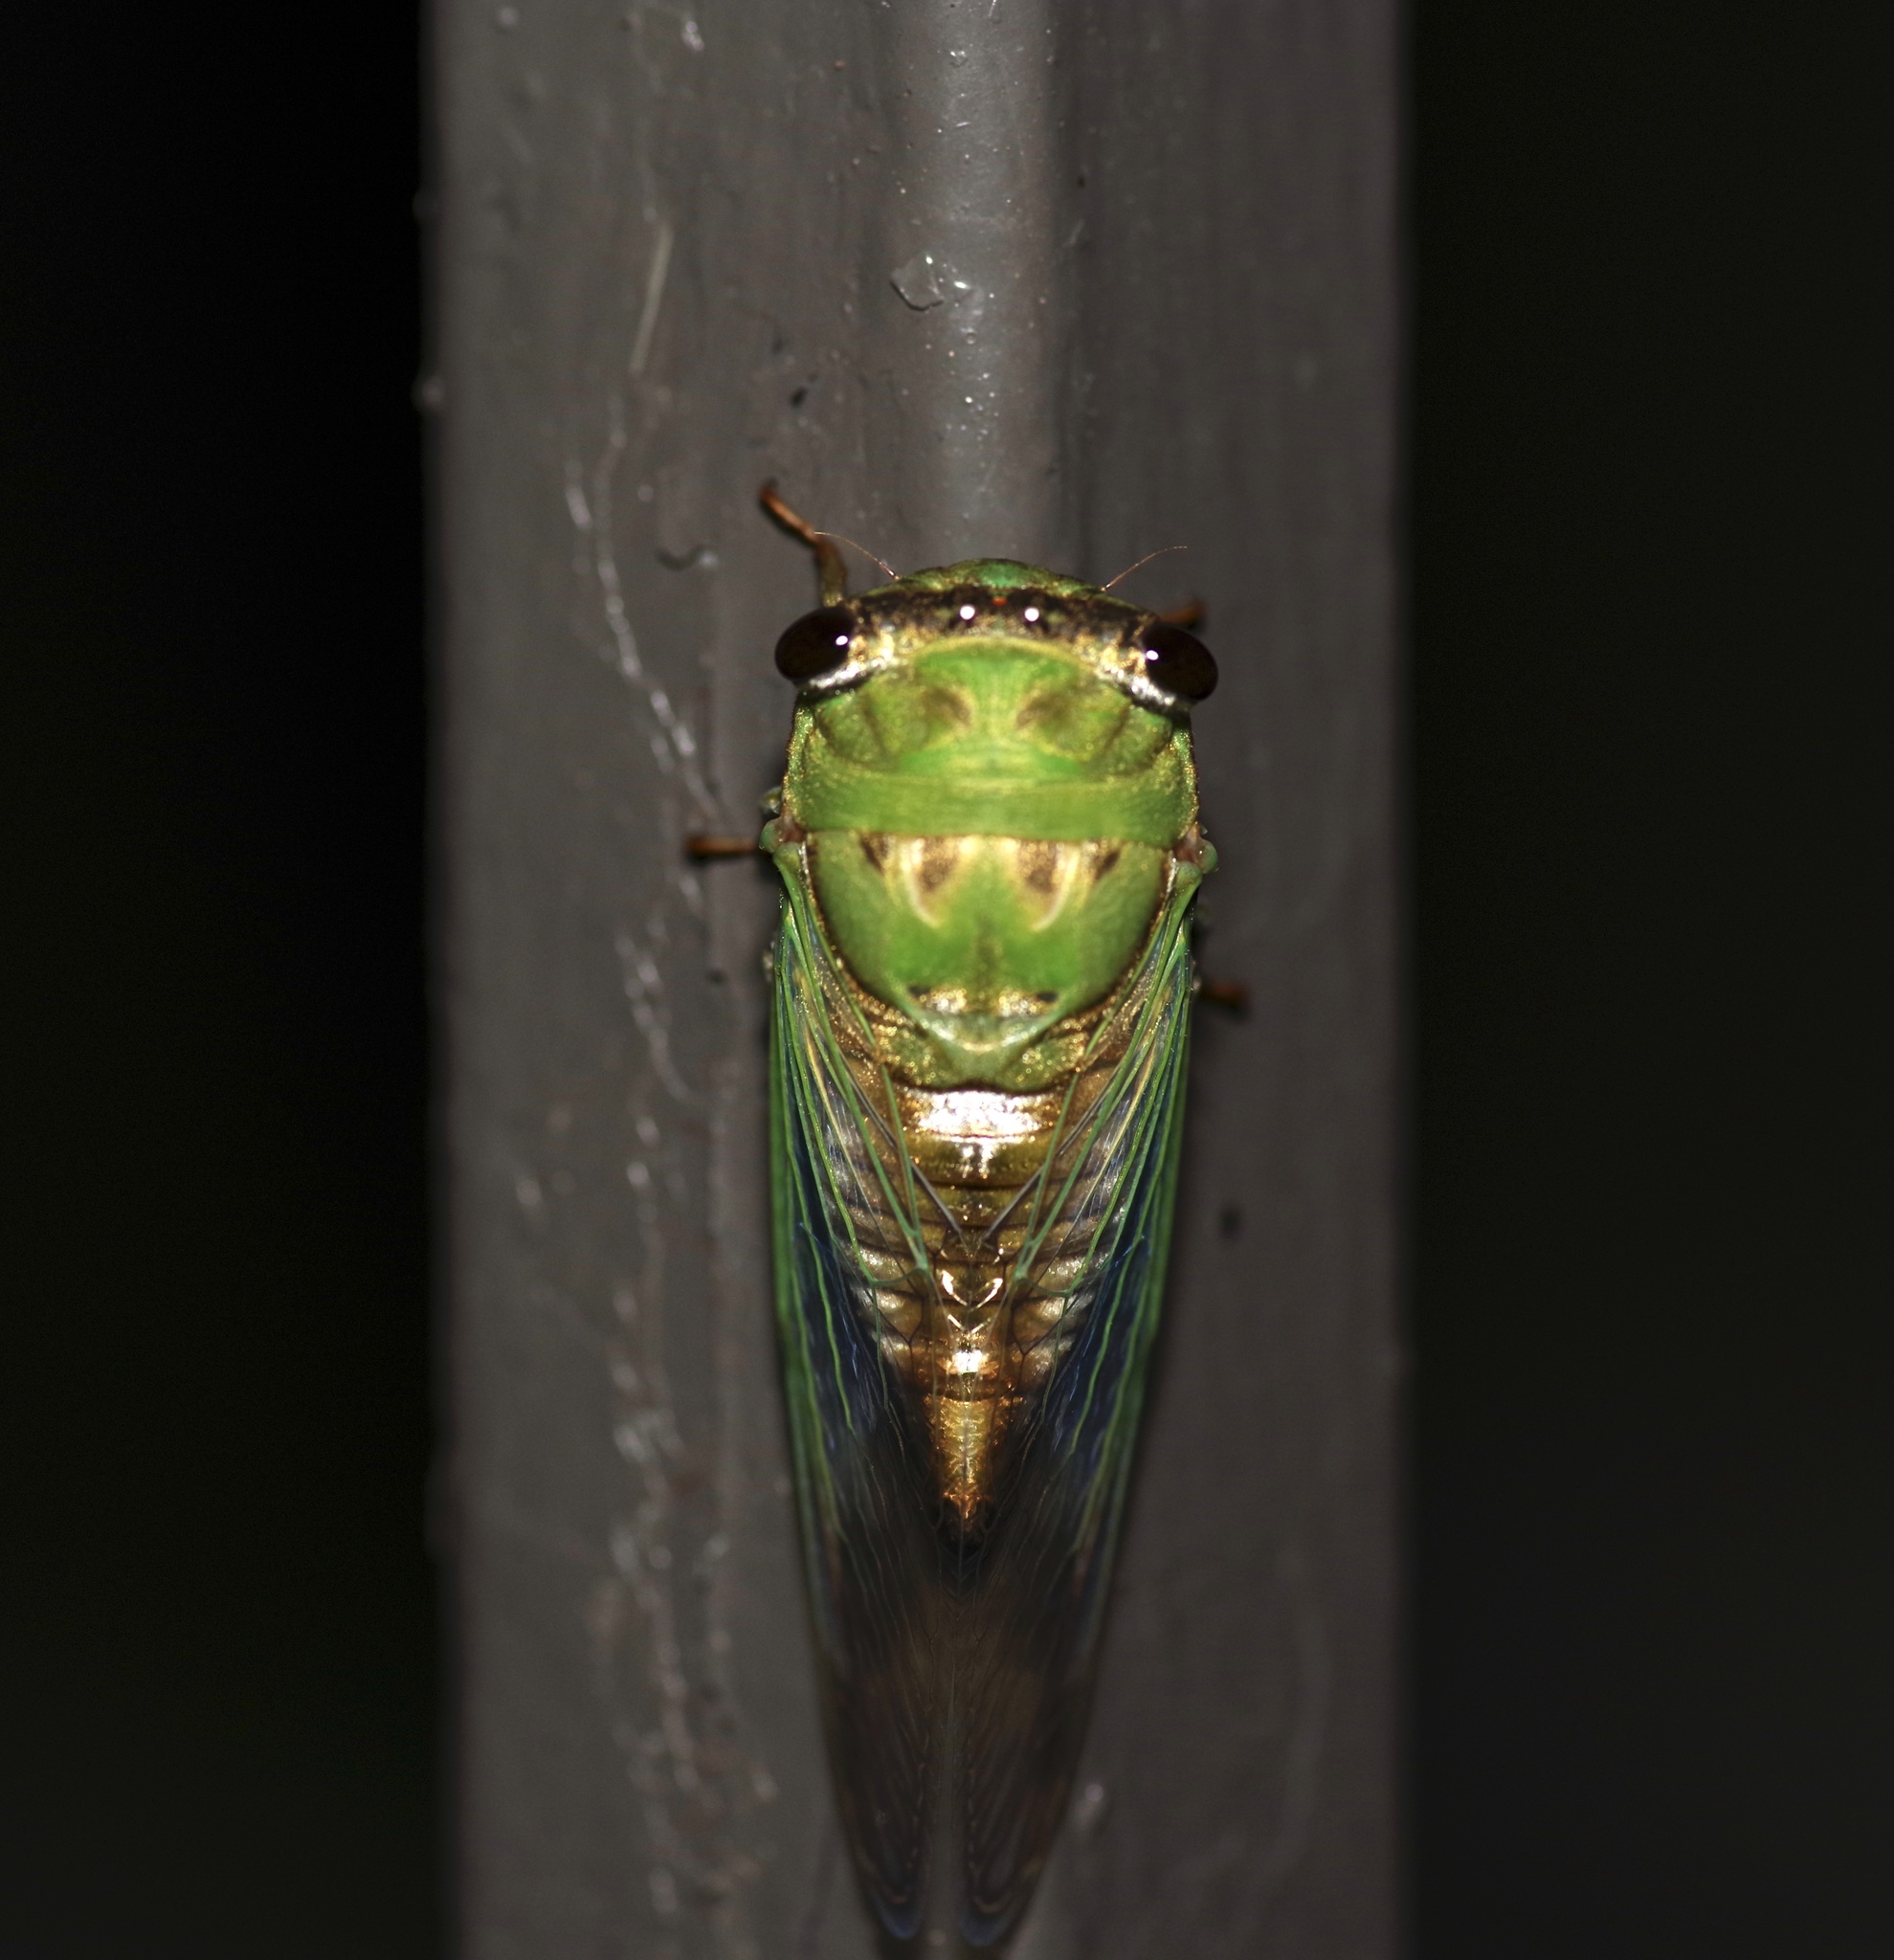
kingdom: Animalia
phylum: Arthropoda
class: Insecta
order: Hemiptera
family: Cicadidae
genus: Neotibicen
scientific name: Neotibicen superbus
